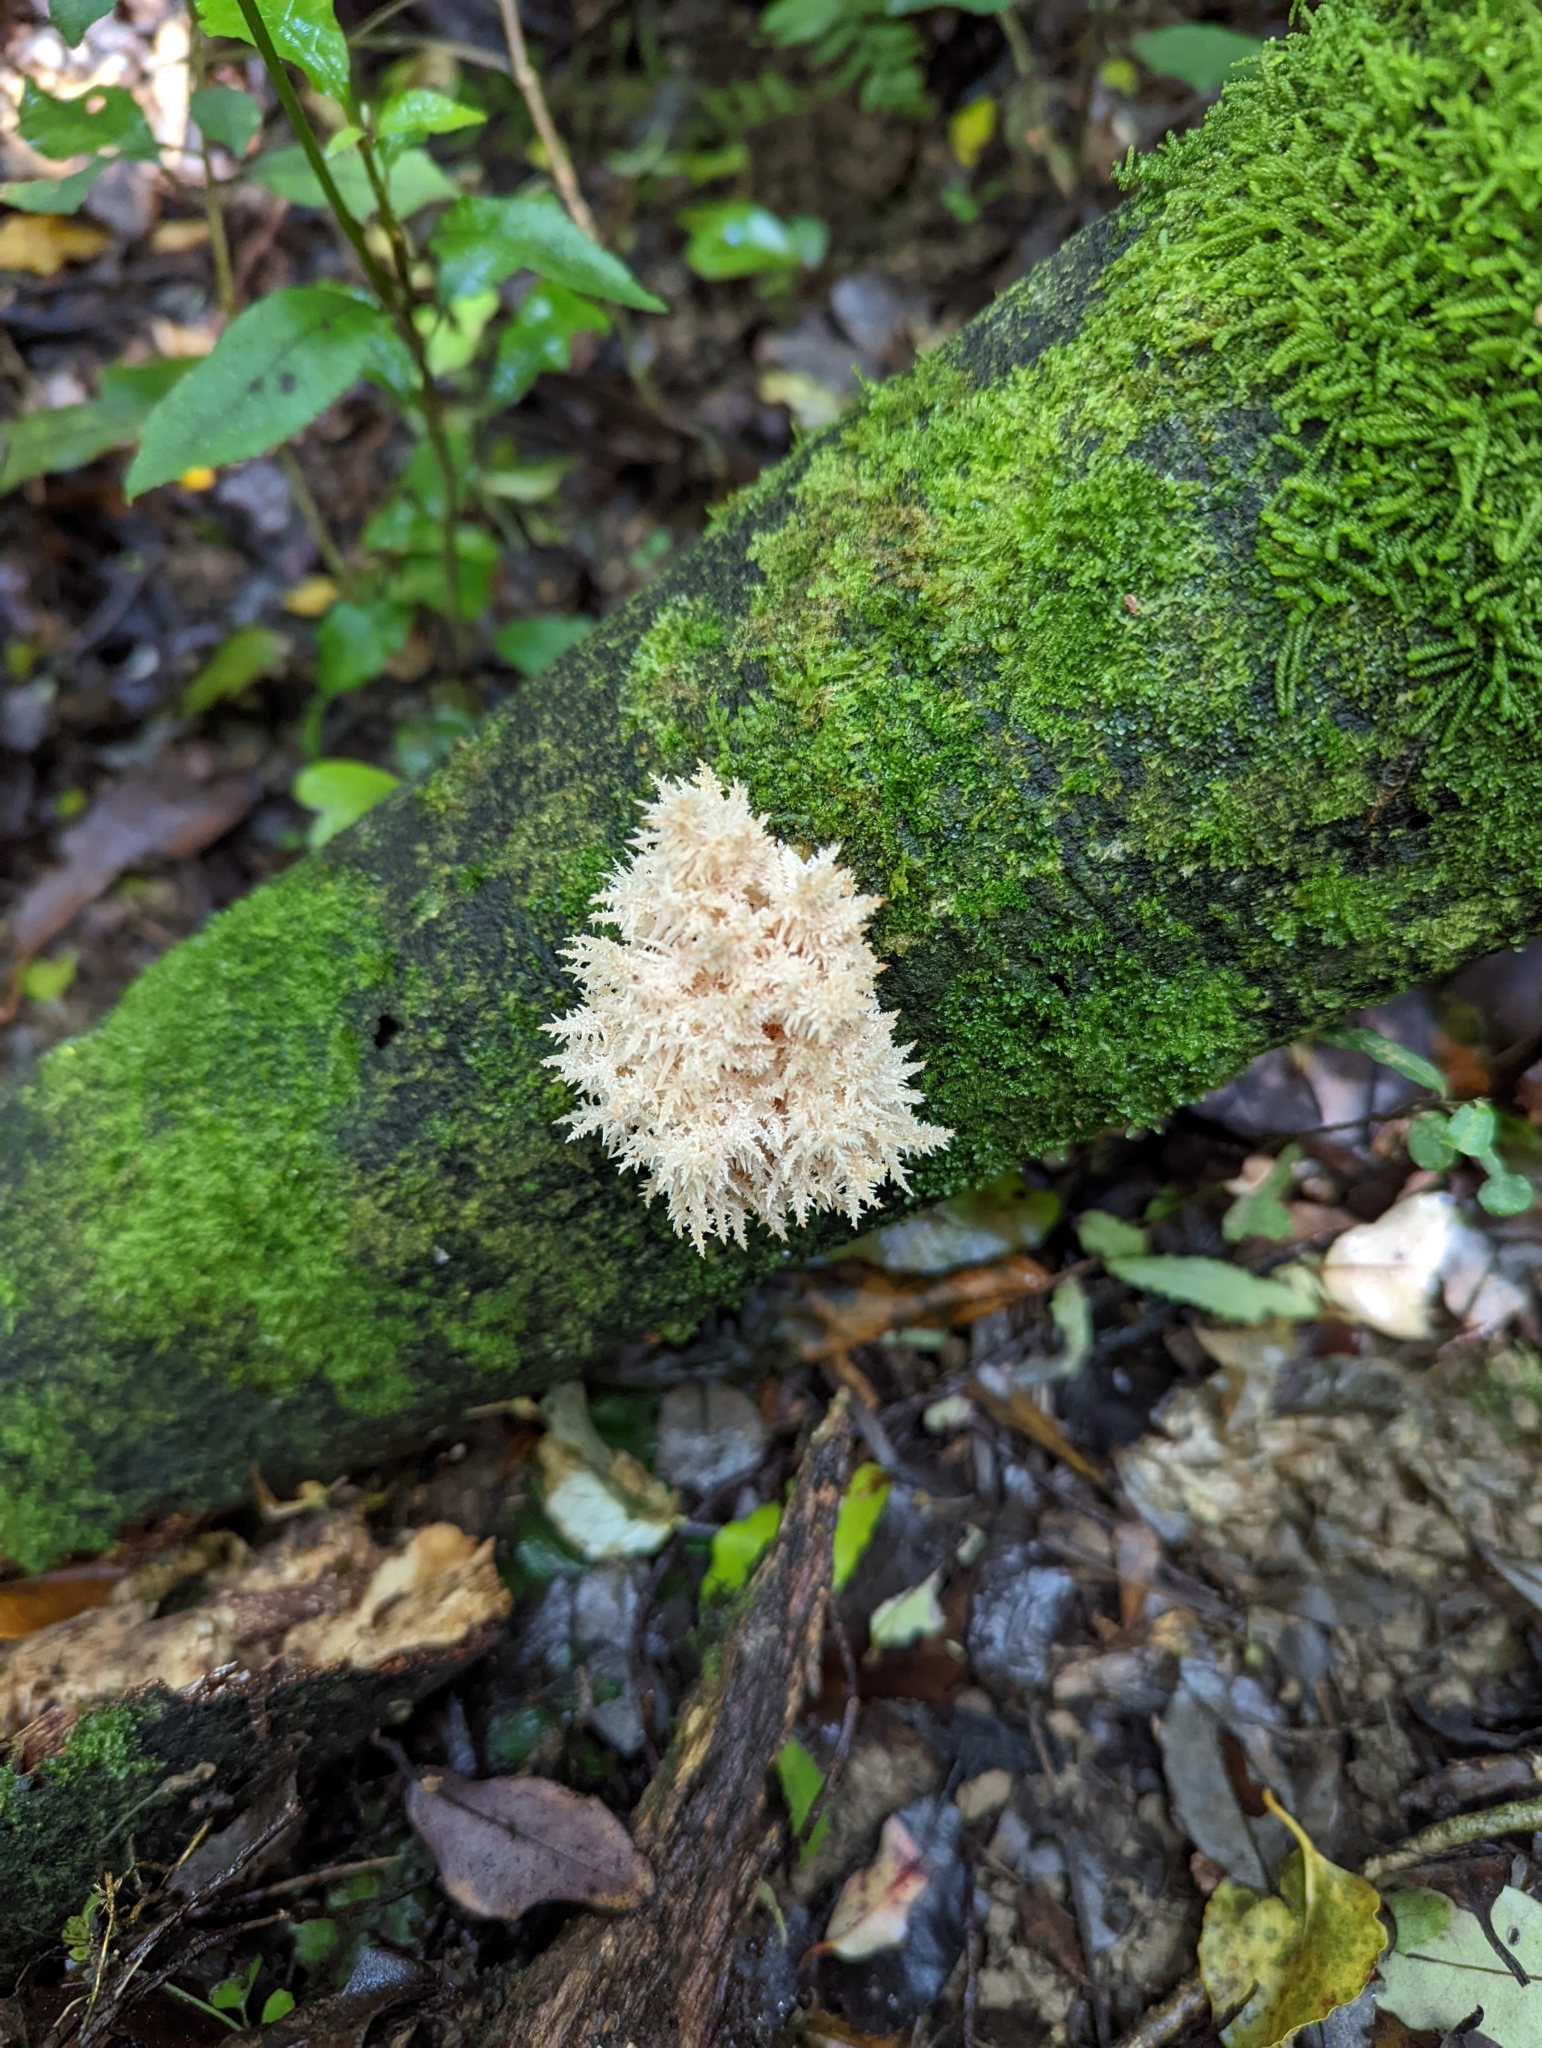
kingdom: Fungi
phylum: Basidiomycota
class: Agaricomycetes
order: Russulales
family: Hericiaceae
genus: Hericium
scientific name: Hericium novae-zealandiae
